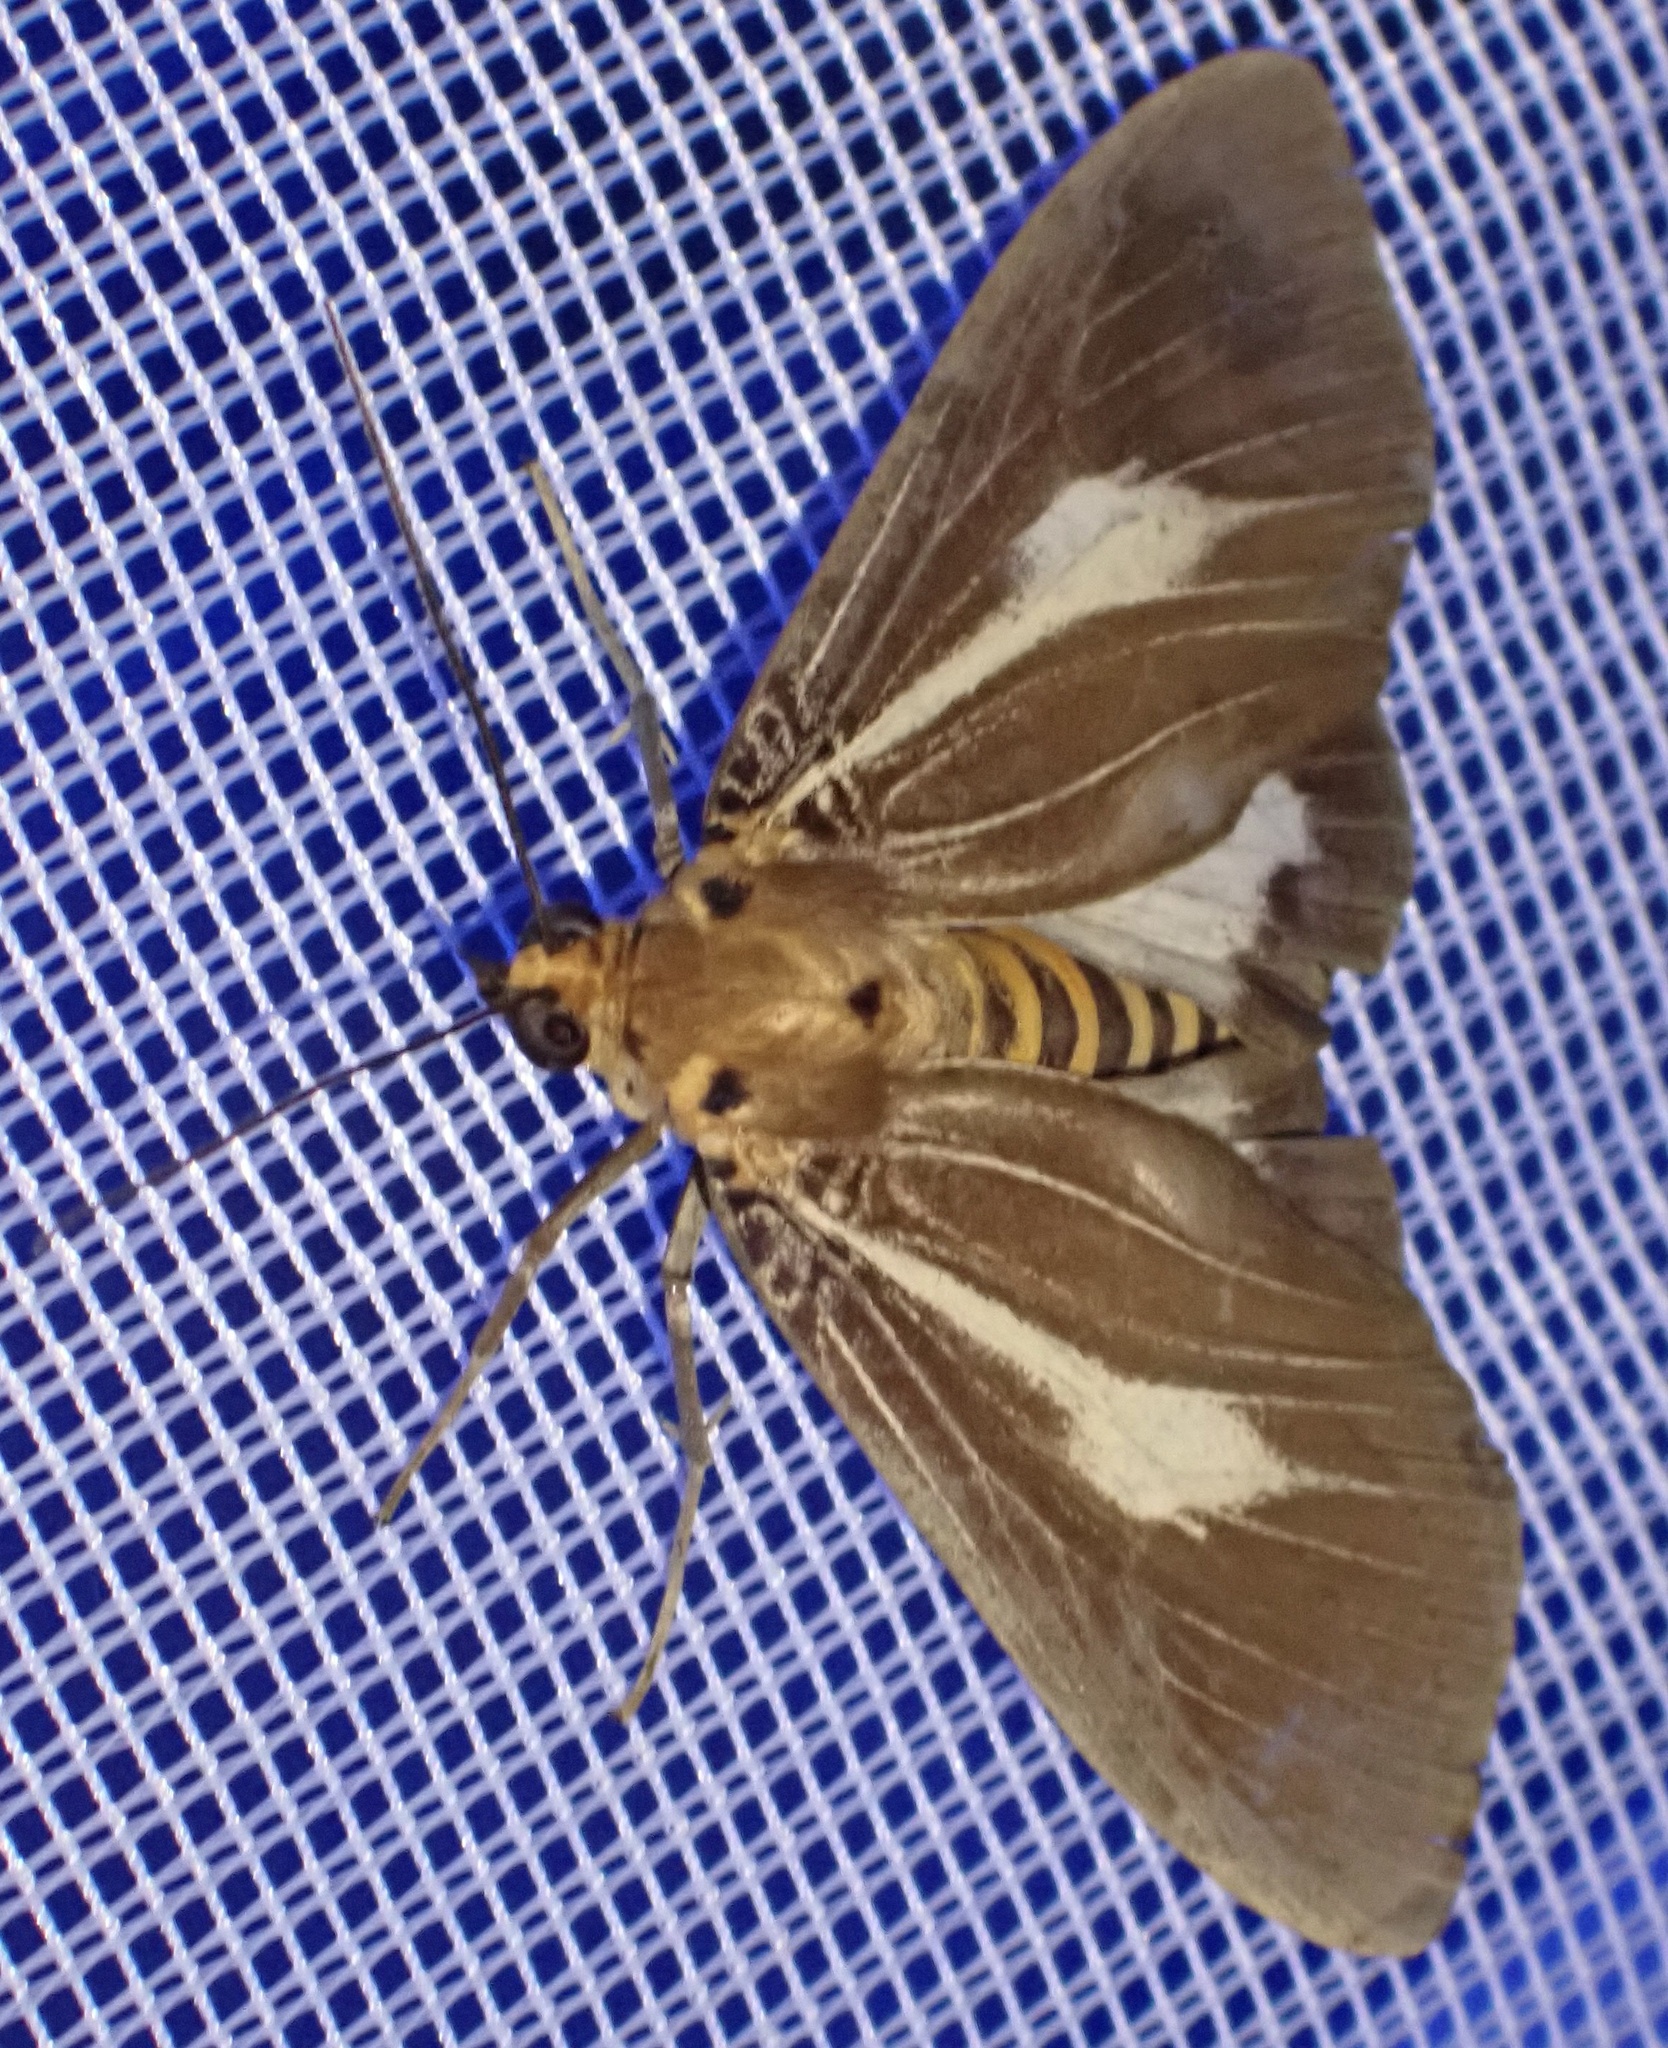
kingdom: Animalia
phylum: Arthropoda
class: Insecta
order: Lepidoptera
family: Erebidae
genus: Asota
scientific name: Asota heliconia
